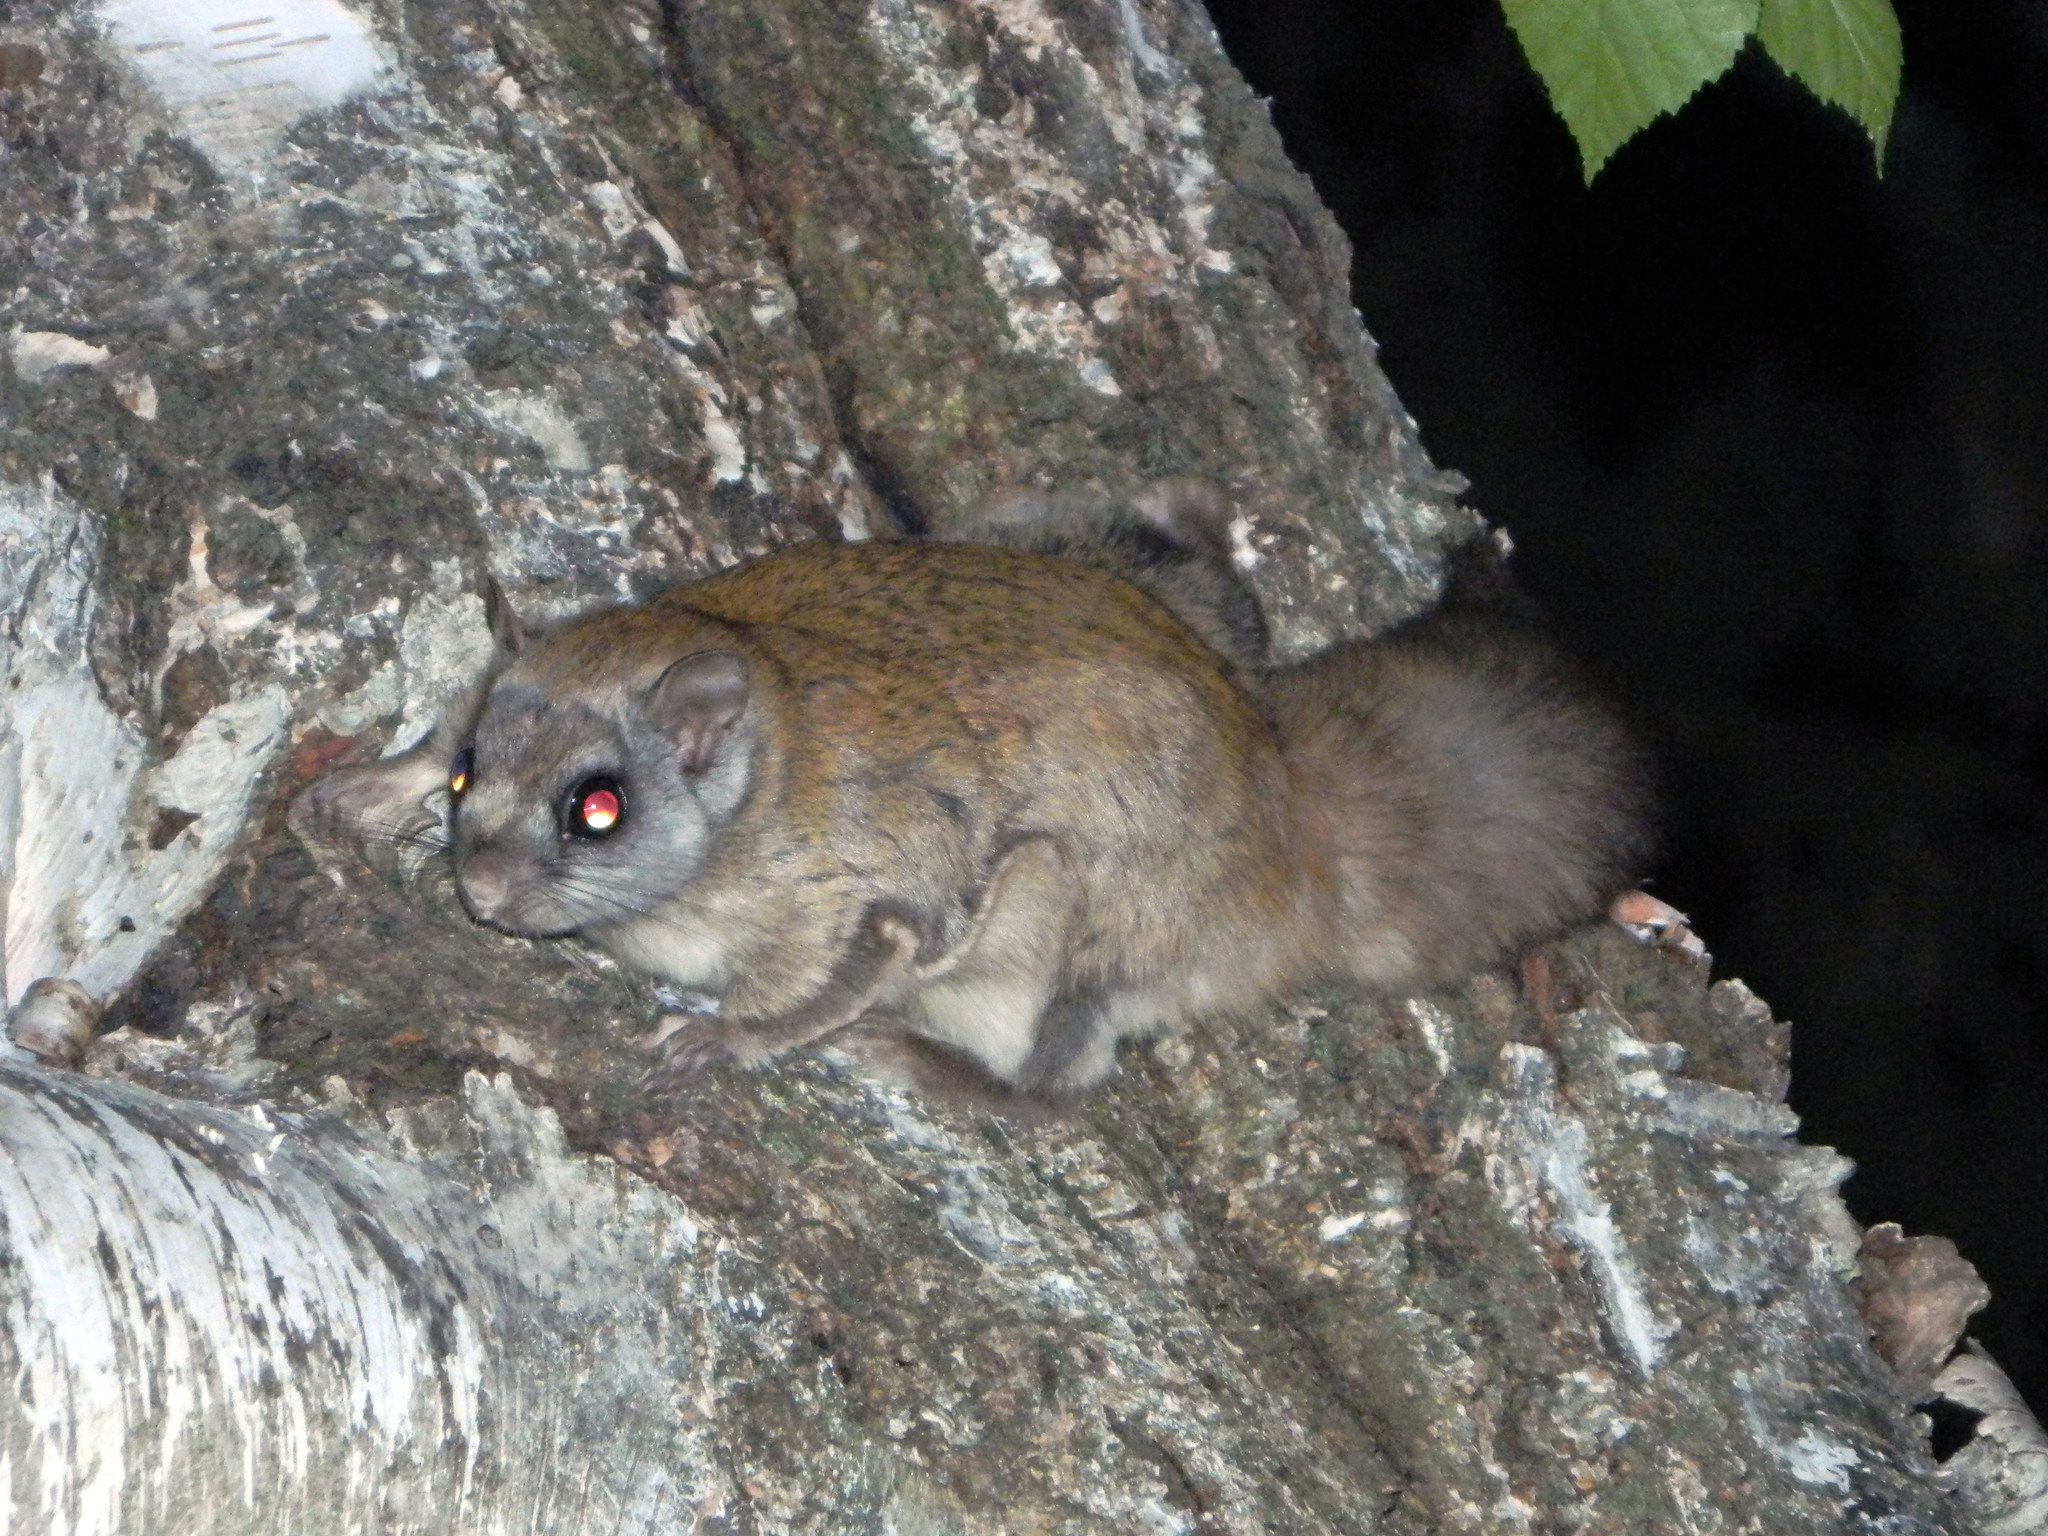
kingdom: Animalia
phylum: Chordata
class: Mammalia
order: Rodentia
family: Sciuridae
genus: Glaucomys
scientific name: Glaucomys sabrinus
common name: Northern flying squirrel
